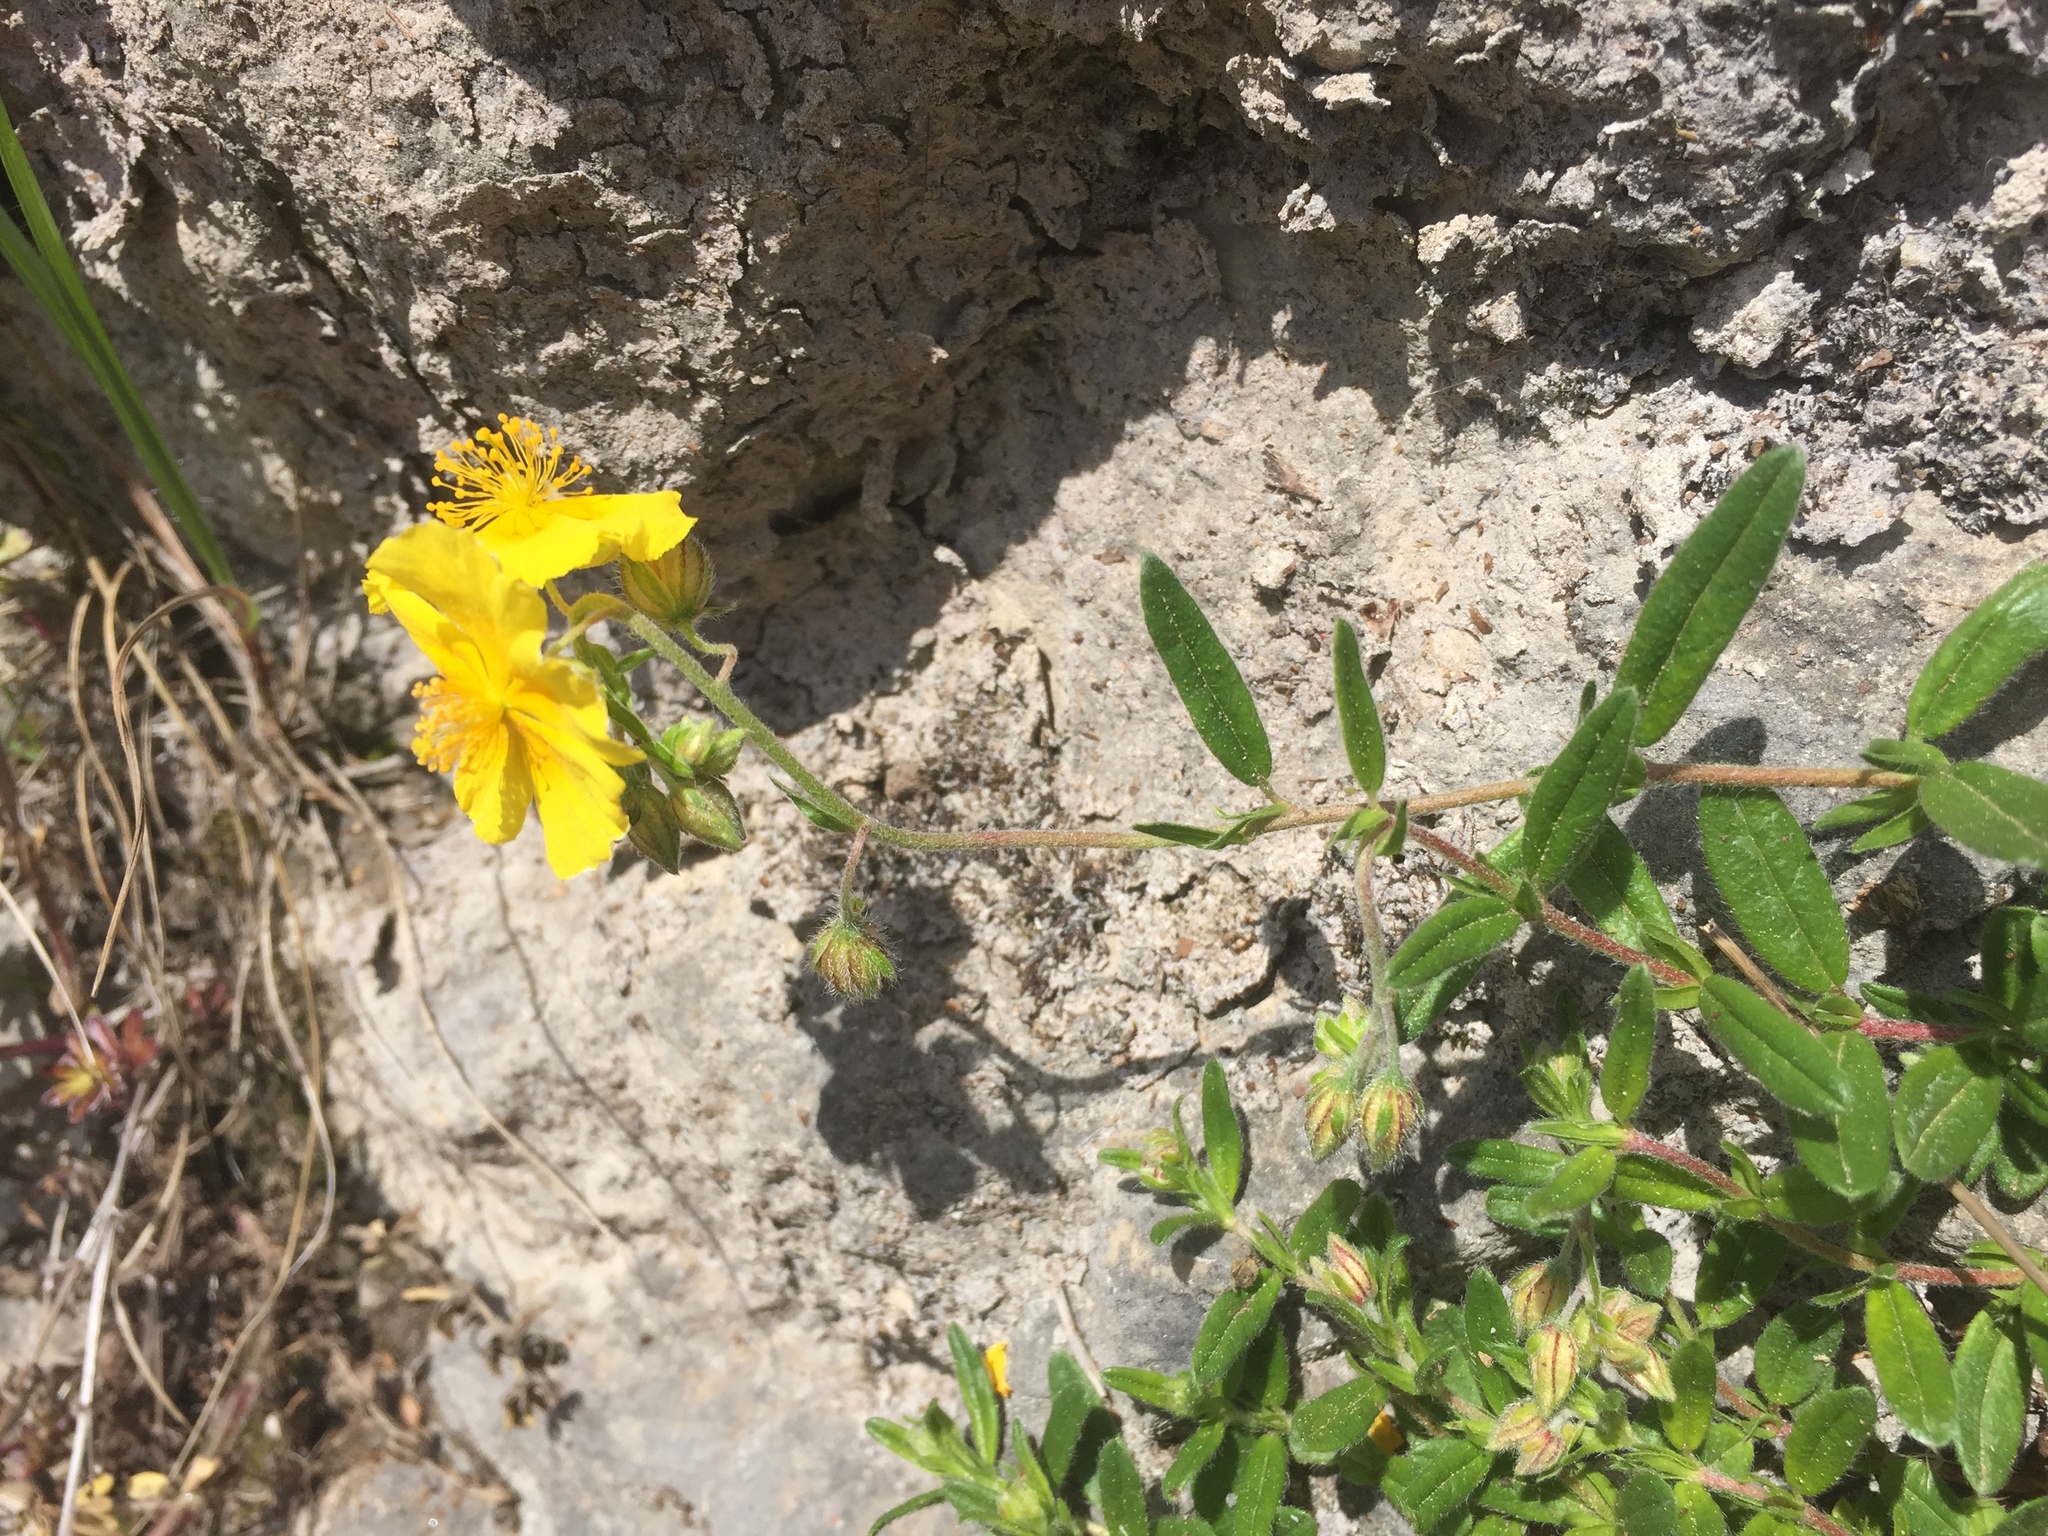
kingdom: Plantae
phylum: Tracheophyta
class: Magnoliopsida
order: Malvales
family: Cistaceae
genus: Helianthemum
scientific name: Helianthemum nummularium
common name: Common rock-rose
